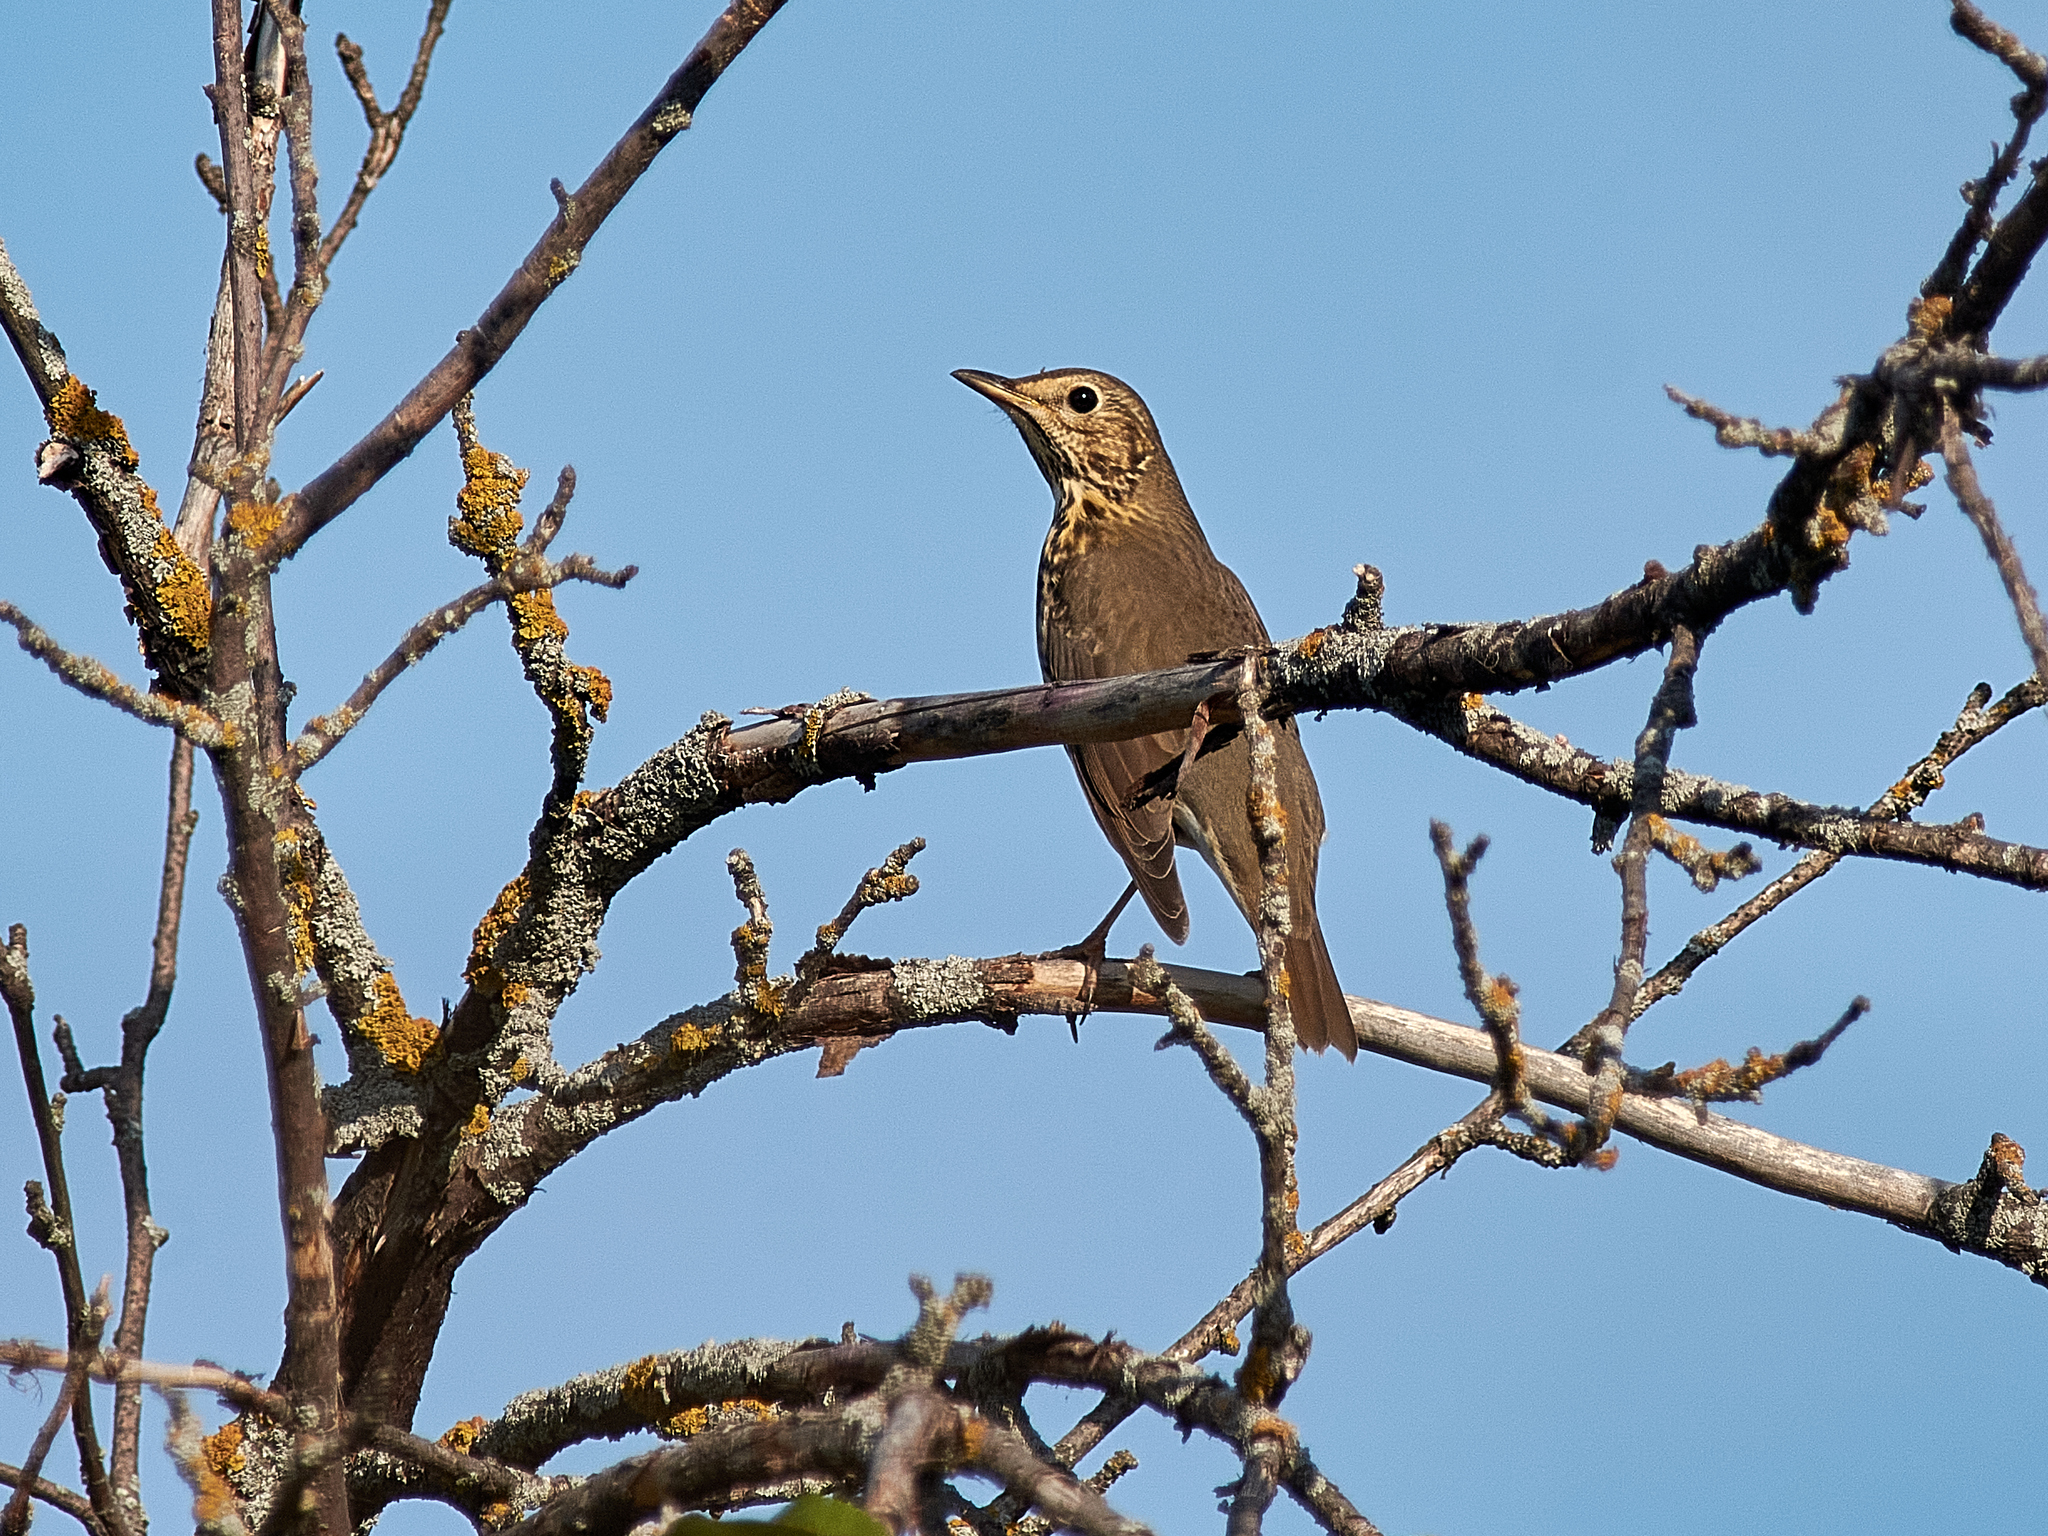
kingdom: Animalia
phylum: Chordata
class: Aves
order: Passeriformes
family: Turdidae
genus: Turdus
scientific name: Turdus philomelos
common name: Song thrush
